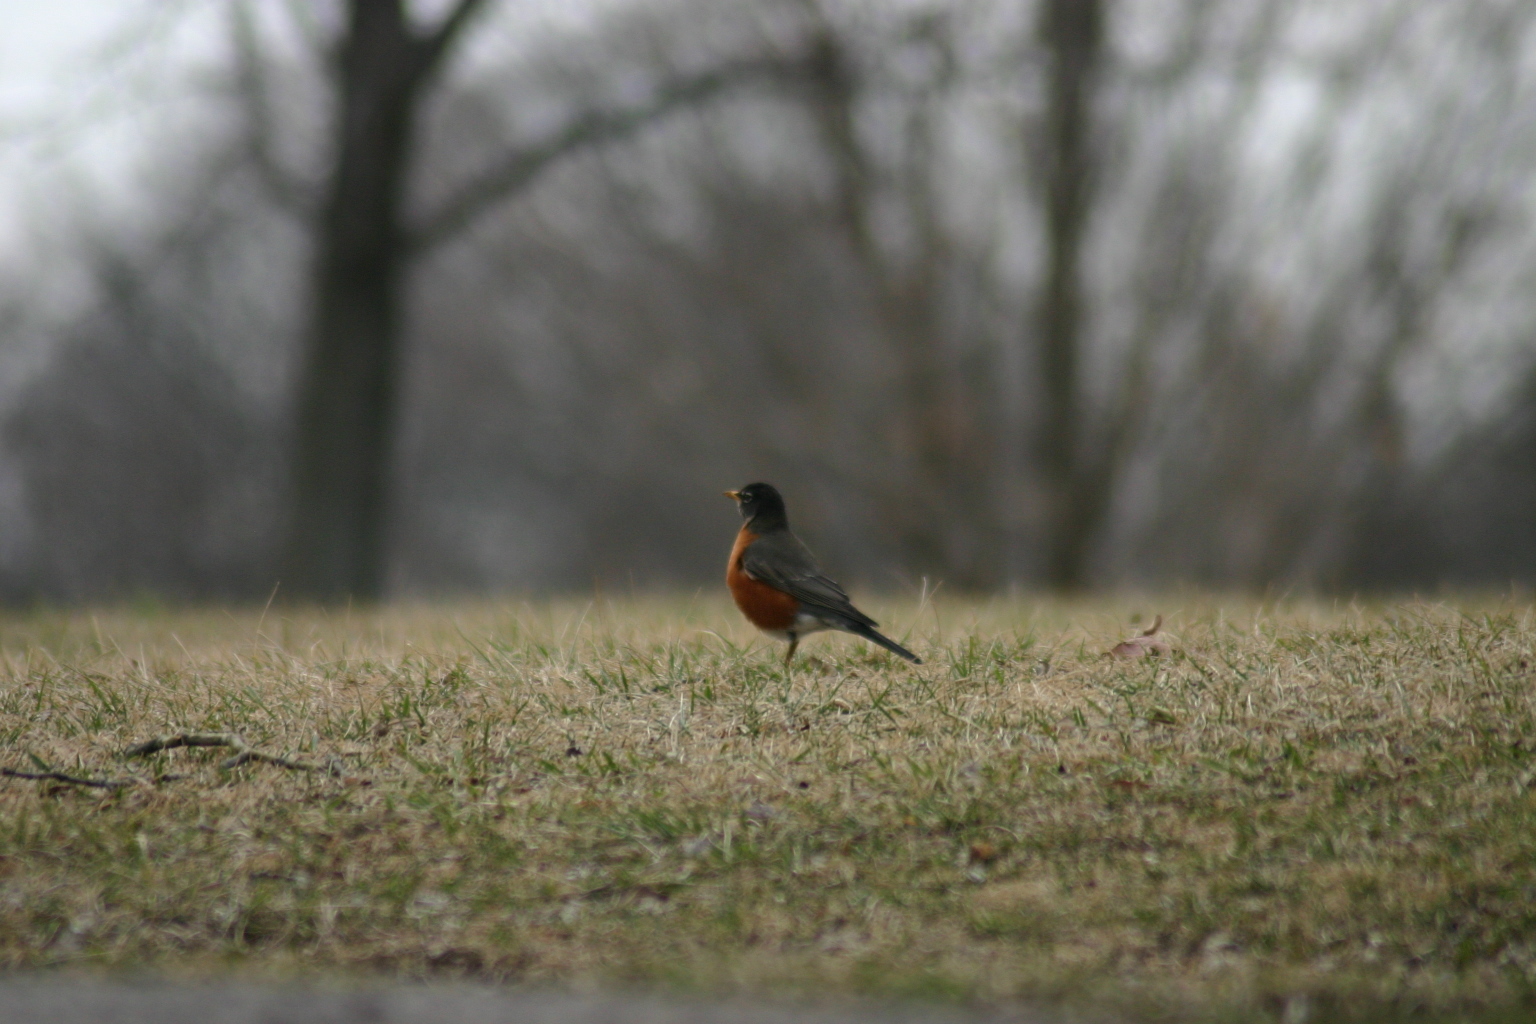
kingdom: Animalia
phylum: Chordata
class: Aves
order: Passeriformes
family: Turdidae
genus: Turdus
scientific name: Turdus migratorius
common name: American robin
